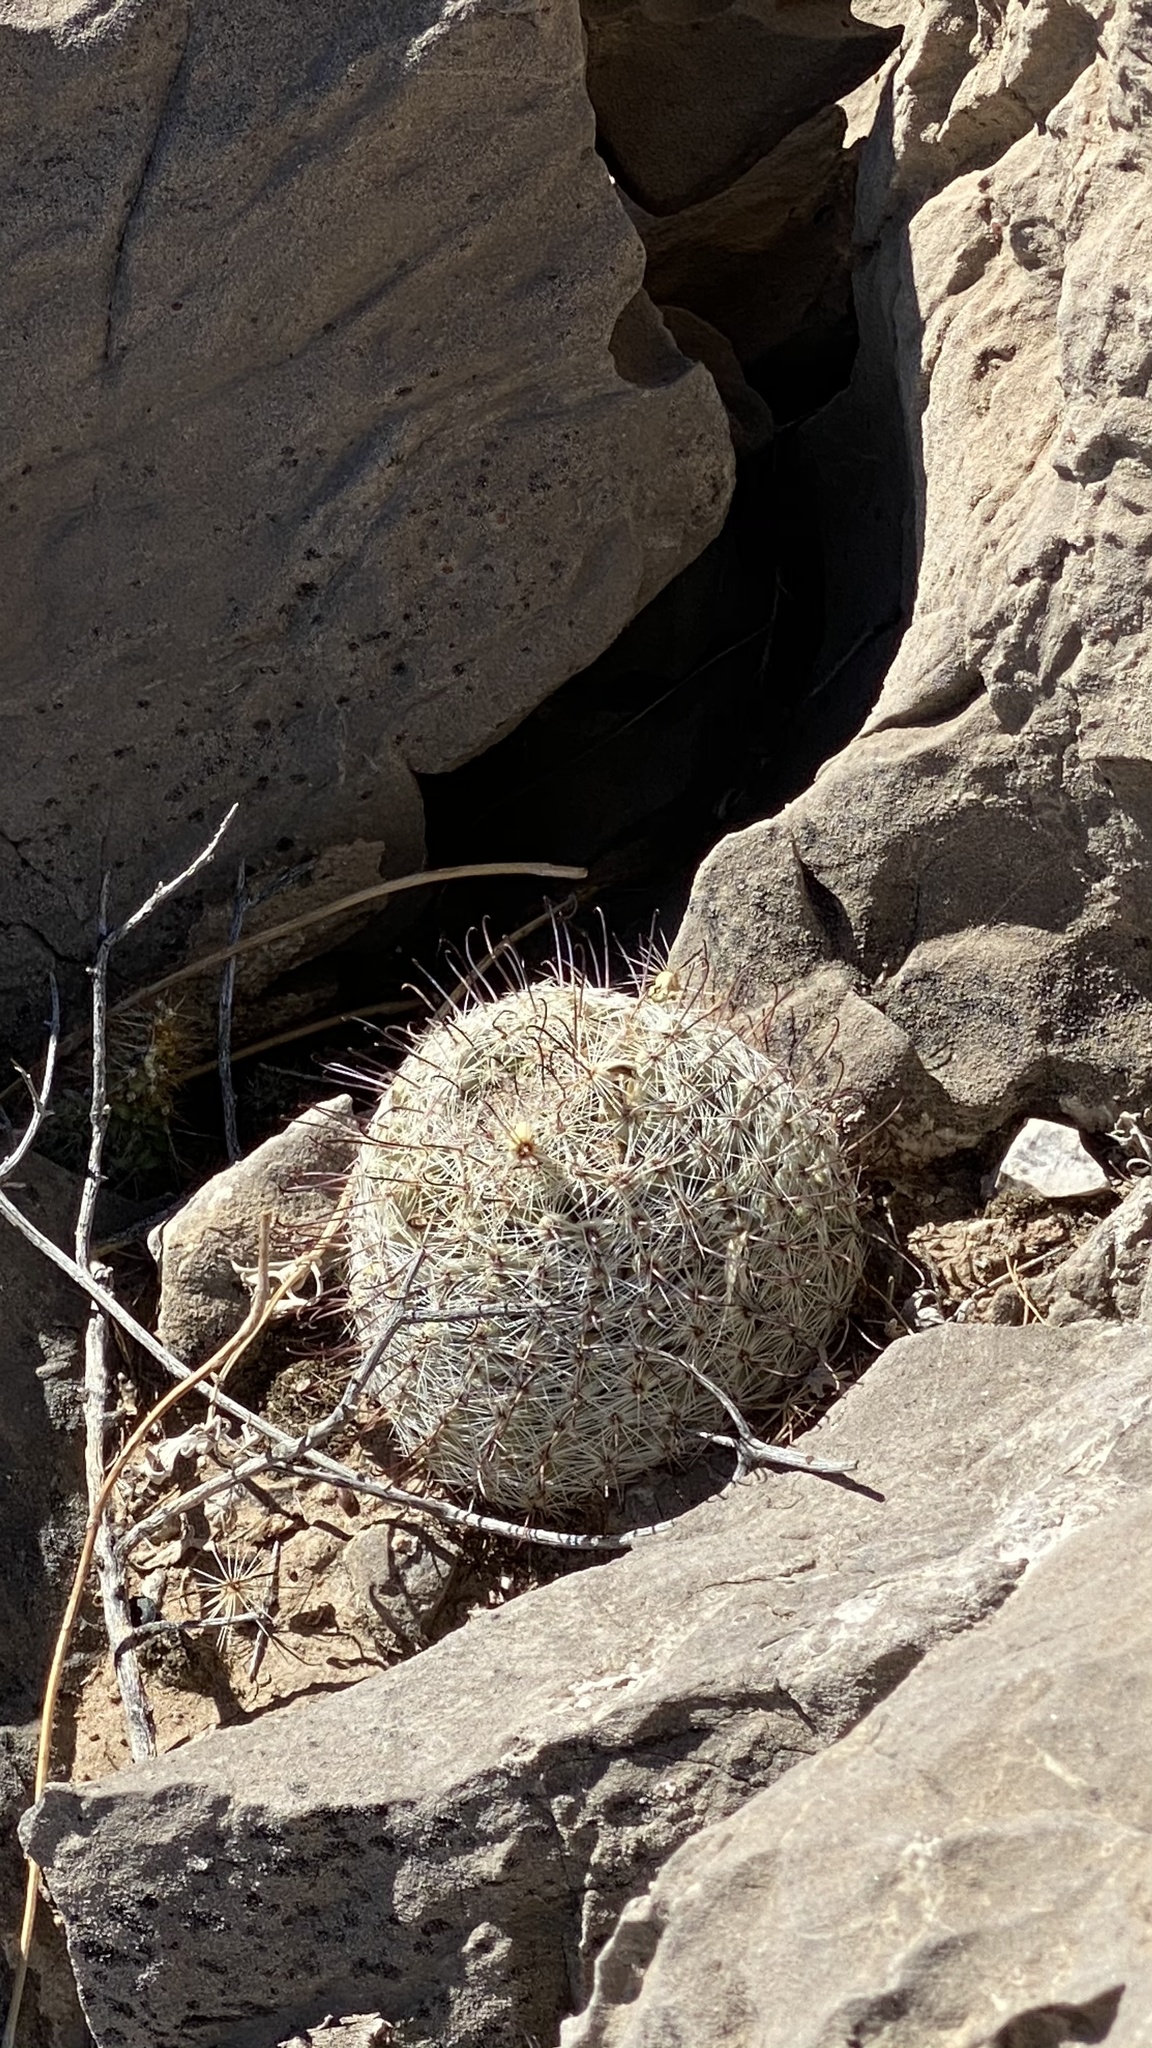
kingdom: Plantae
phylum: Tracheophyta
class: Magnoliopsida
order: Caryophyllales
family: Cactaceae
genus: Cochemiea
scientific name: Cochemiea grahamii
